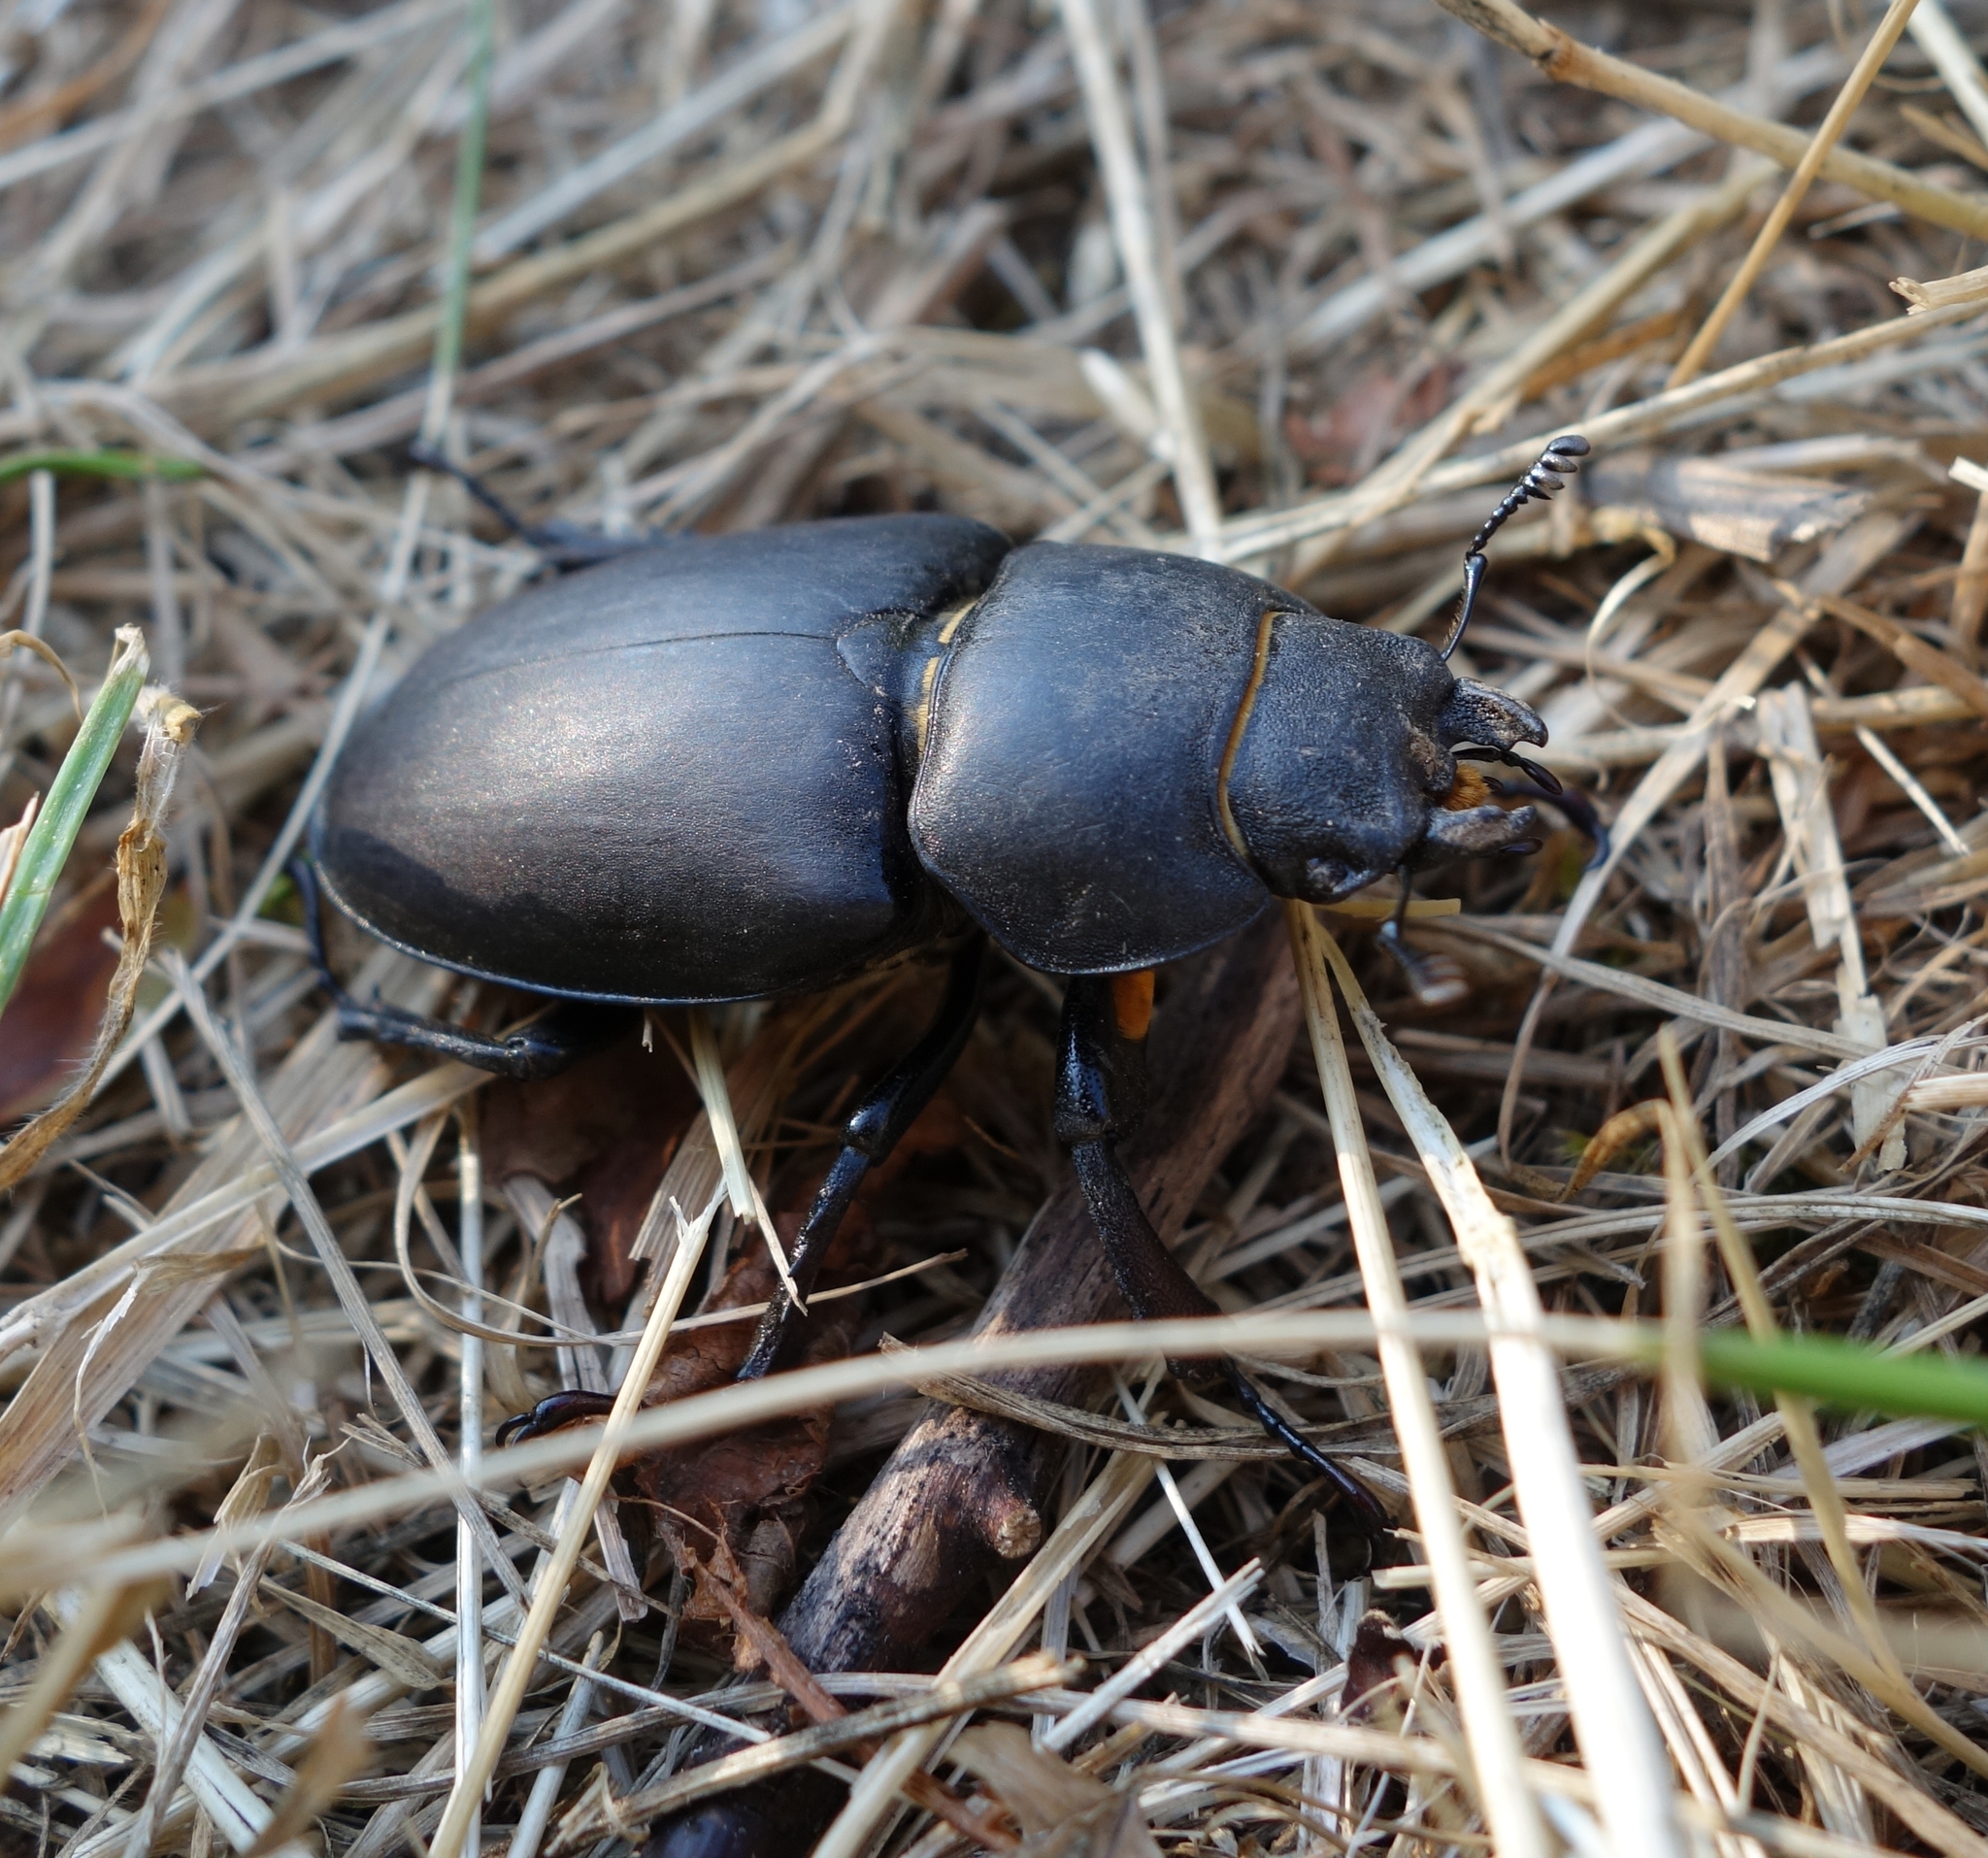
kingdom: Animalia
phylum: Arthropoda
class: Insecta
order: Coleoptera
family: Lucanidae
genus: Lucanus
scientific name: Lucanus cervus
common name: Stag beetle
